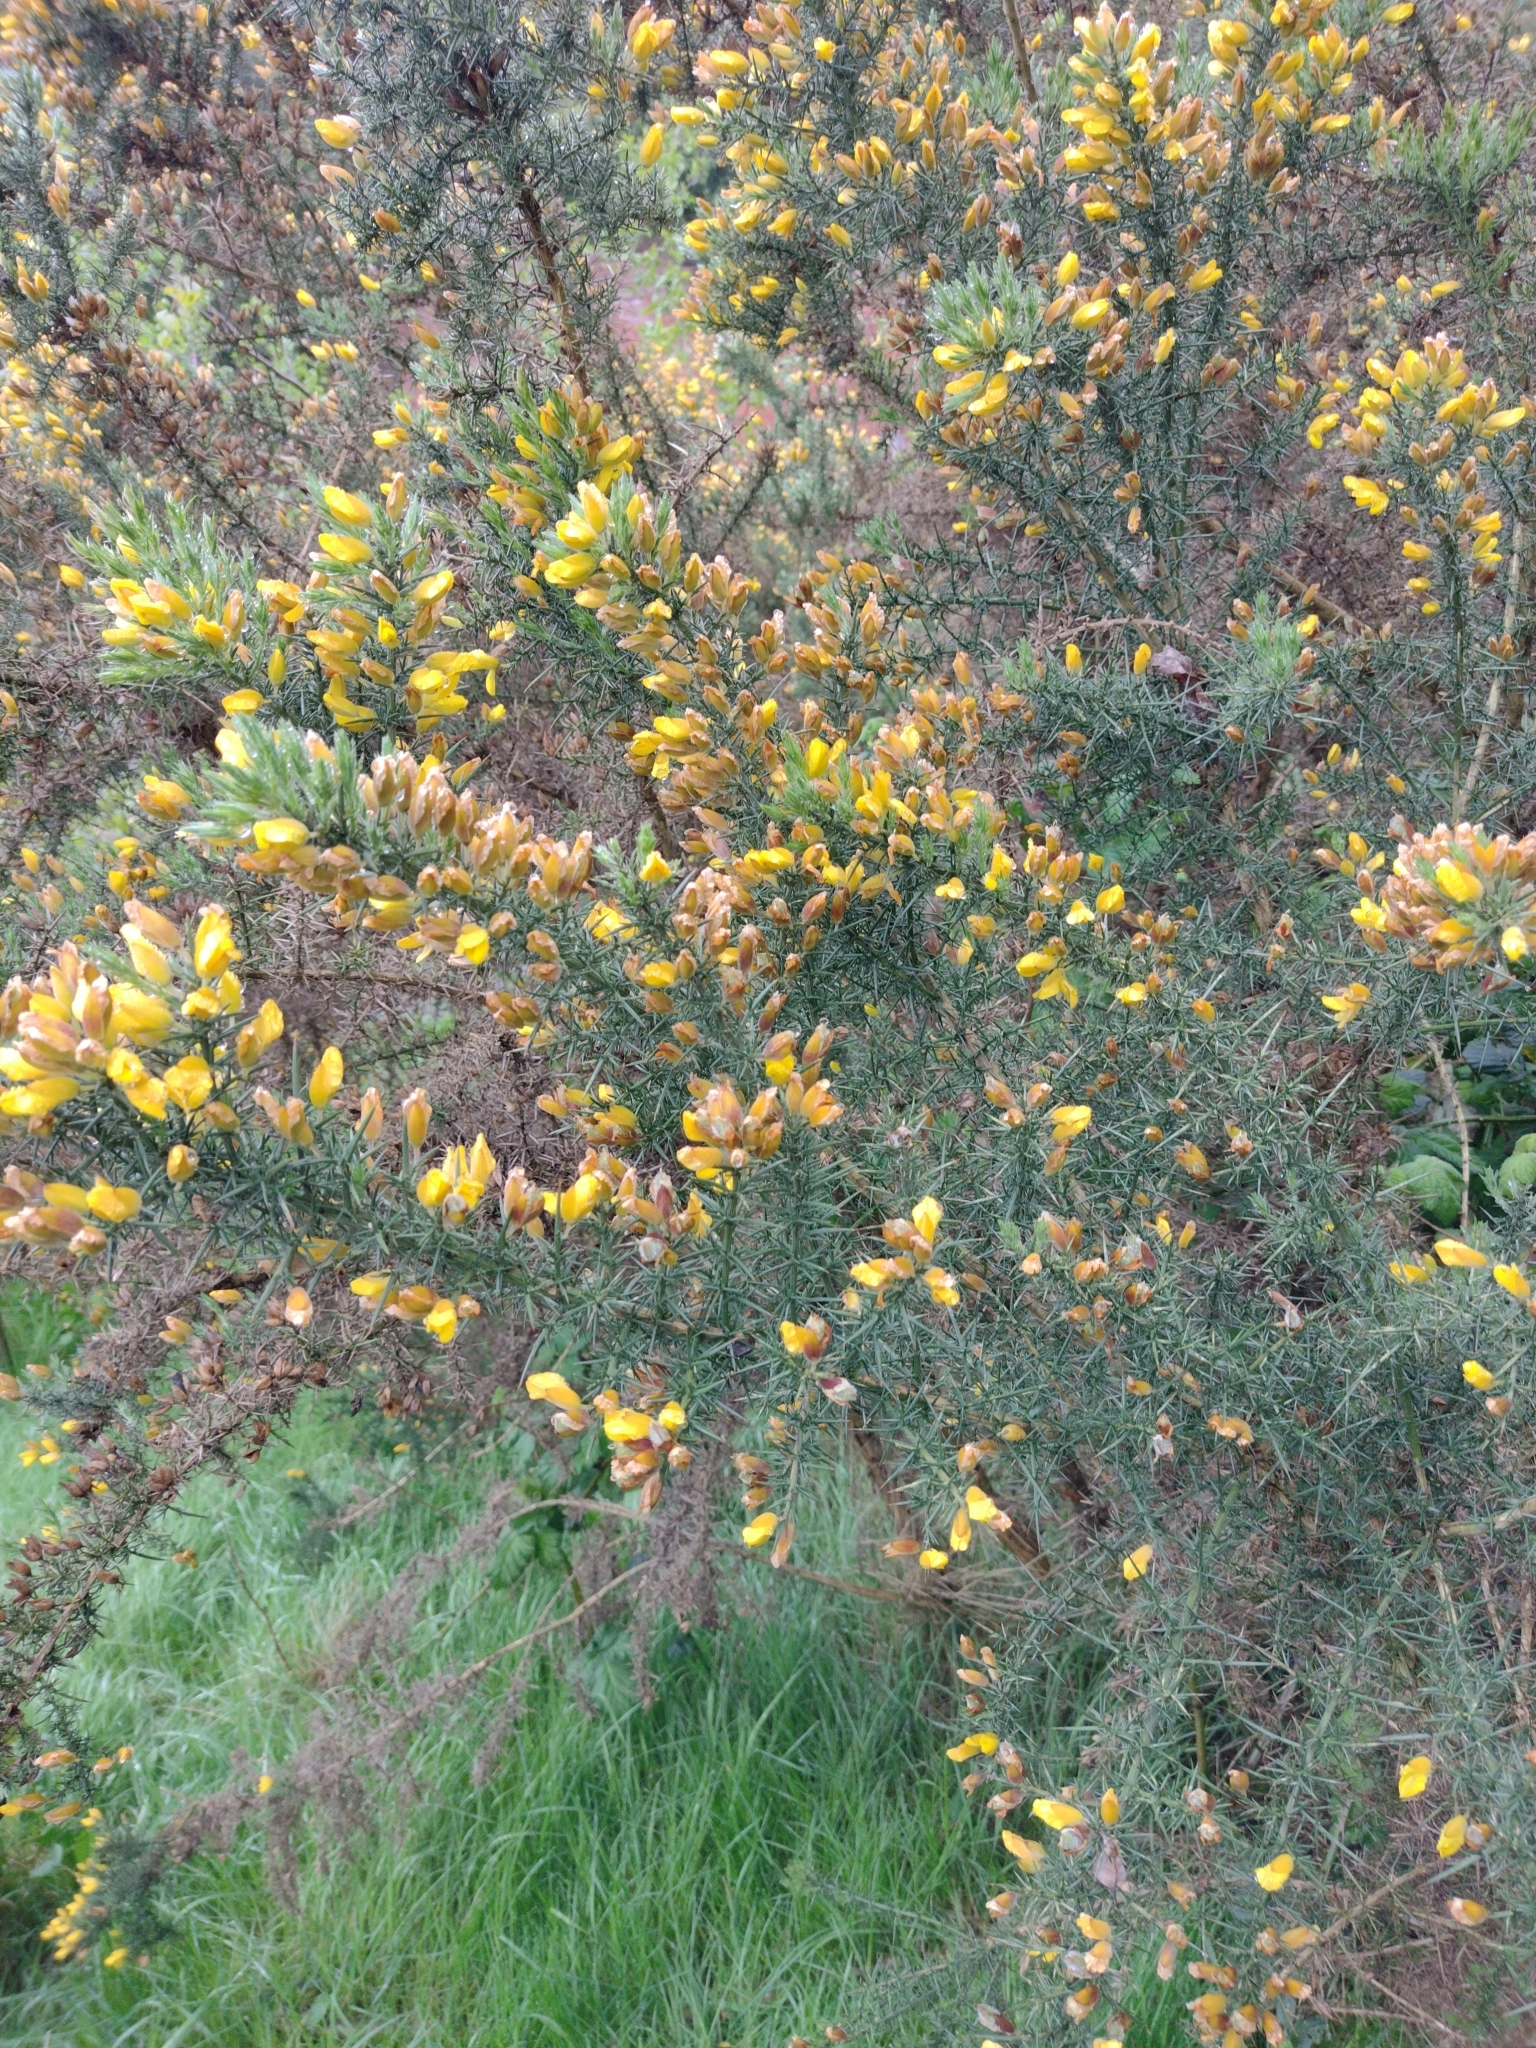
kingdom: Plantae
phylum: Tracheophyta
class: Magnoliopsida
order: Fabales
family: Fabaceae
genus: Ulex
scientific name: Ulex europaeus
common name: Common gorse
